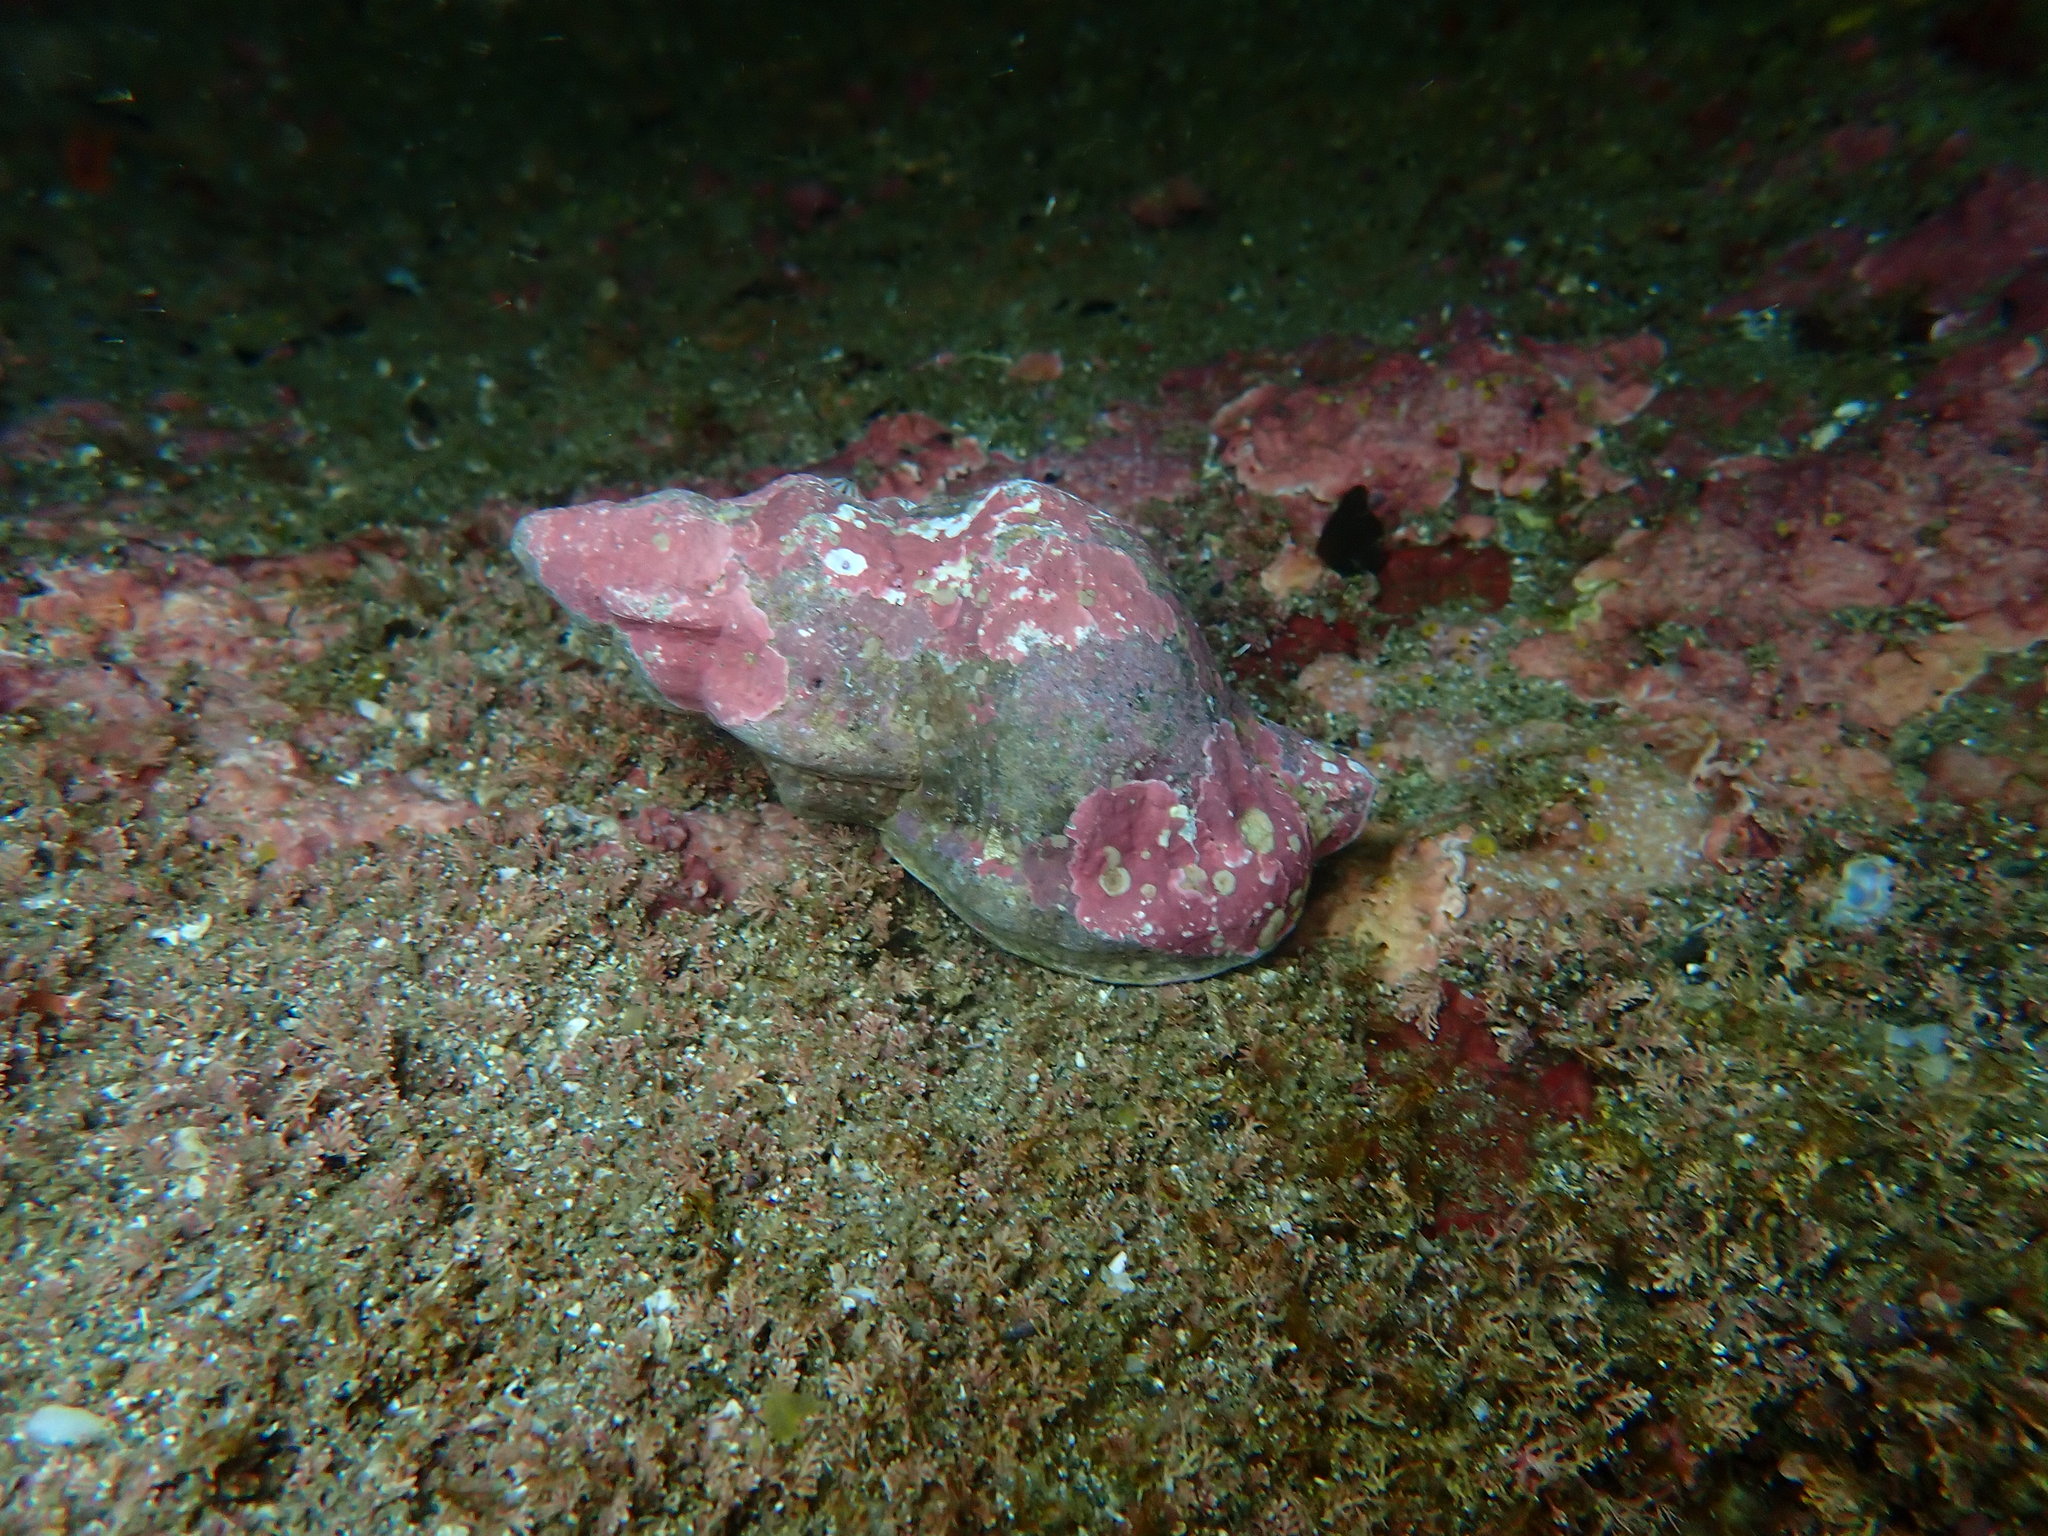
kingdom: Animalia
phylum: Mollusca
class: Gastropoda
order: Littorinimorpha
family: Ranellidae
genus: Ranella
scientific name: Ranella australasia
